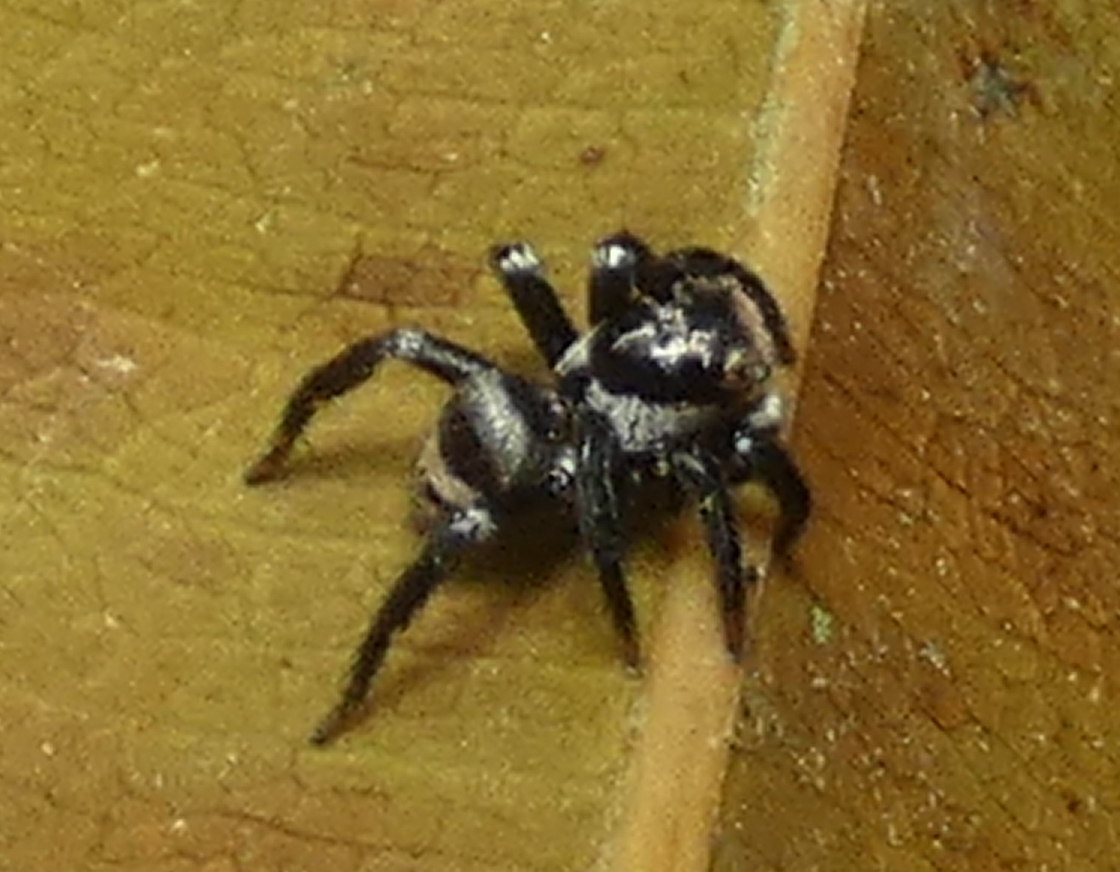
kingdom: Animalia
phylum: Arthropoda
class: Arachnida
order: Araneae
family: Salticidae
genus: Corythalia
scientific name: Corythalia verhaaghi
